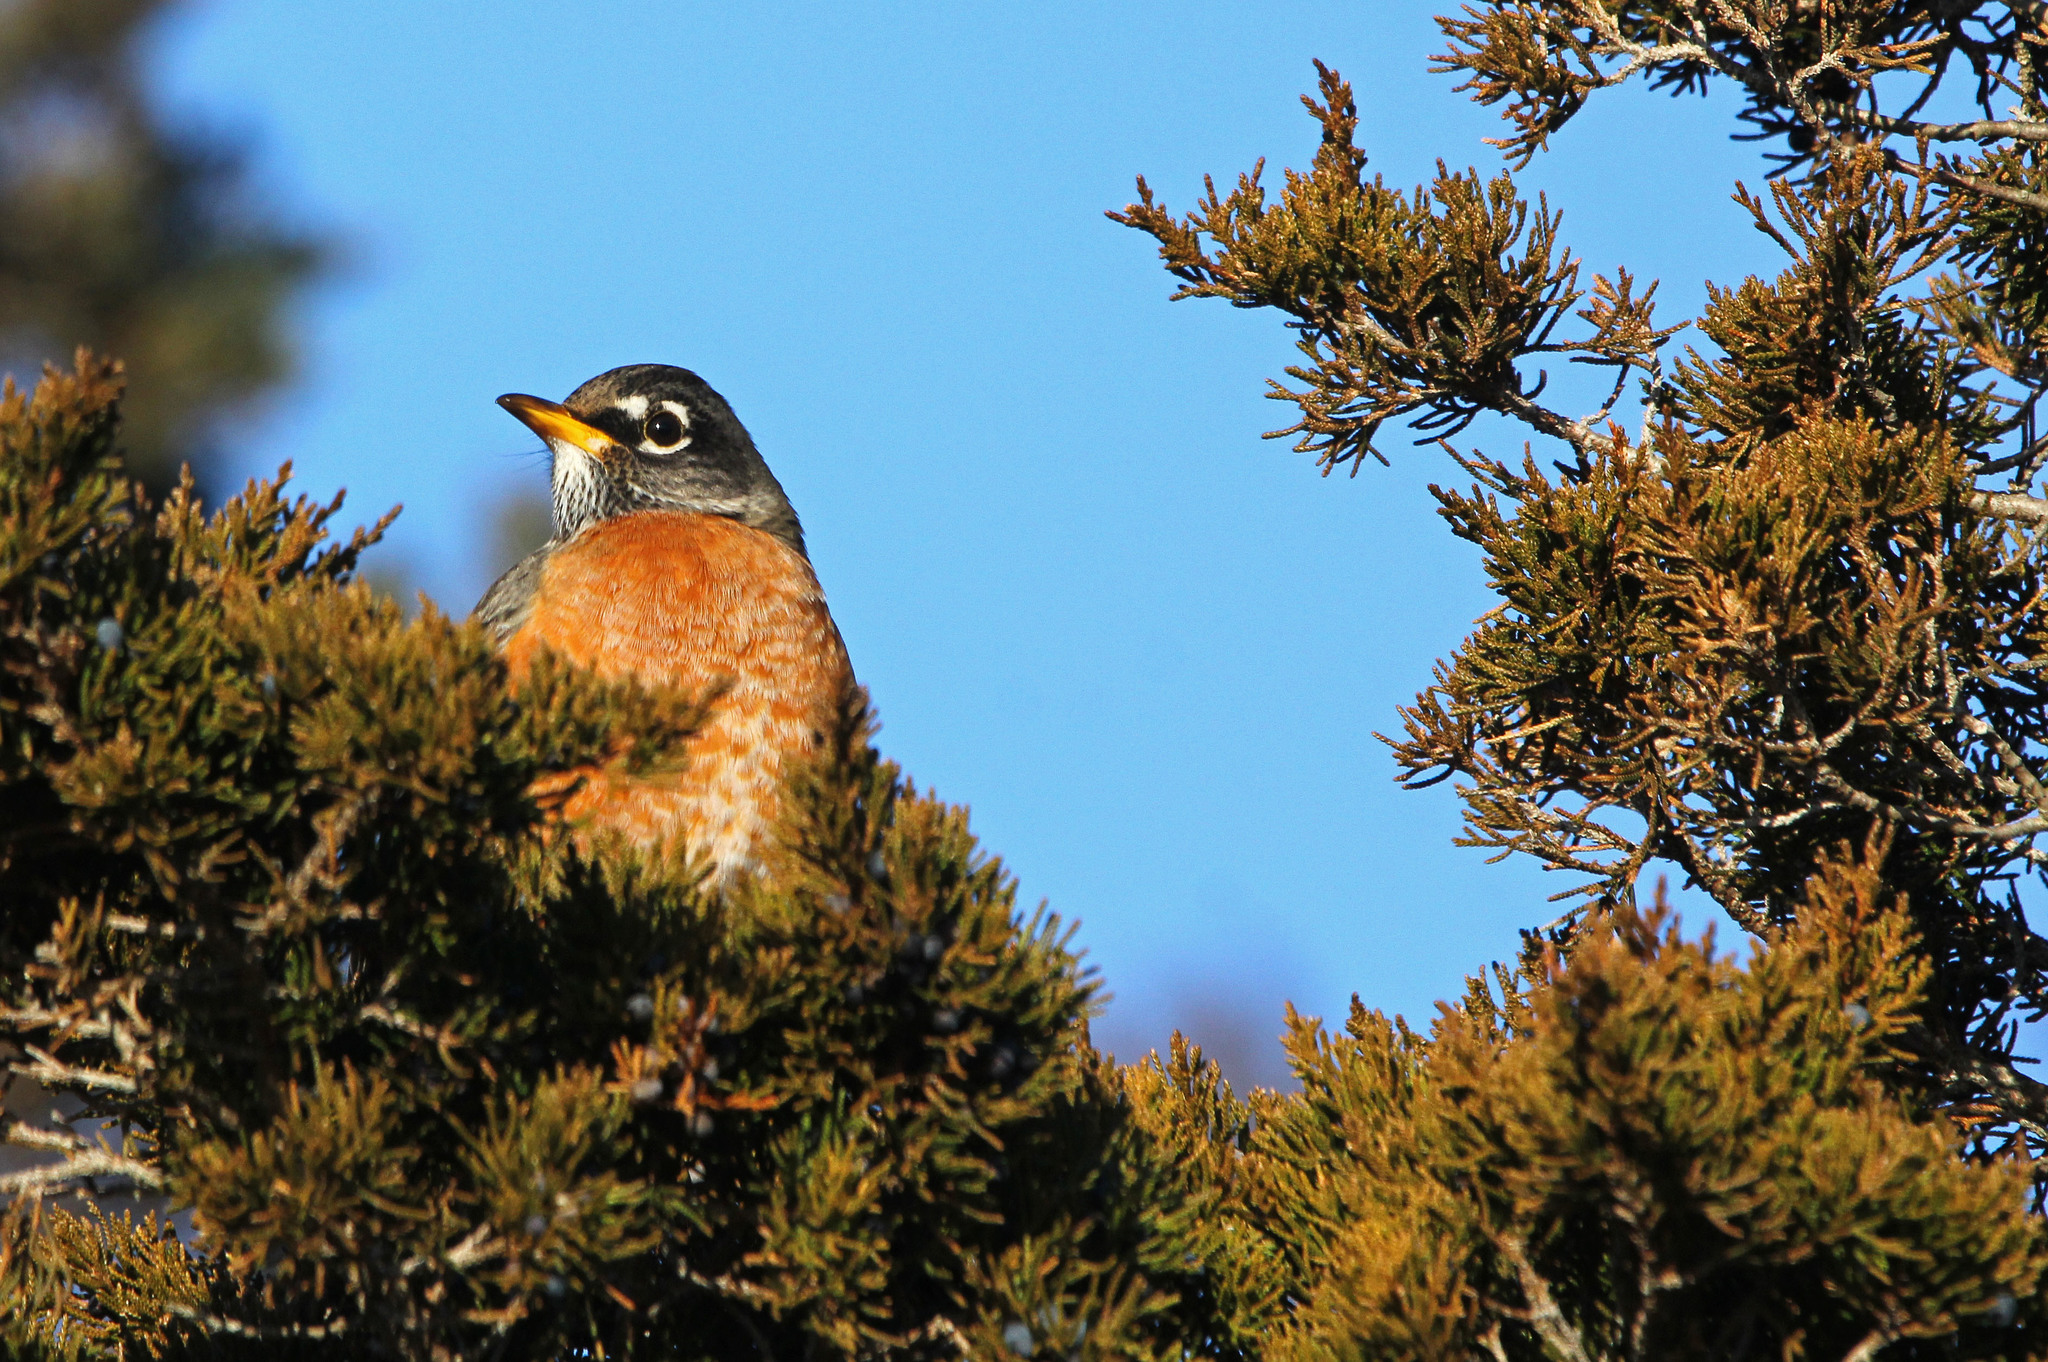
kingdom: Animalia
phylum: Chordata
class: Aves
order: Passeriformes
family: Turdidae
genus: Turdus
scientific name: Turdus migratorius
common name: American robin
